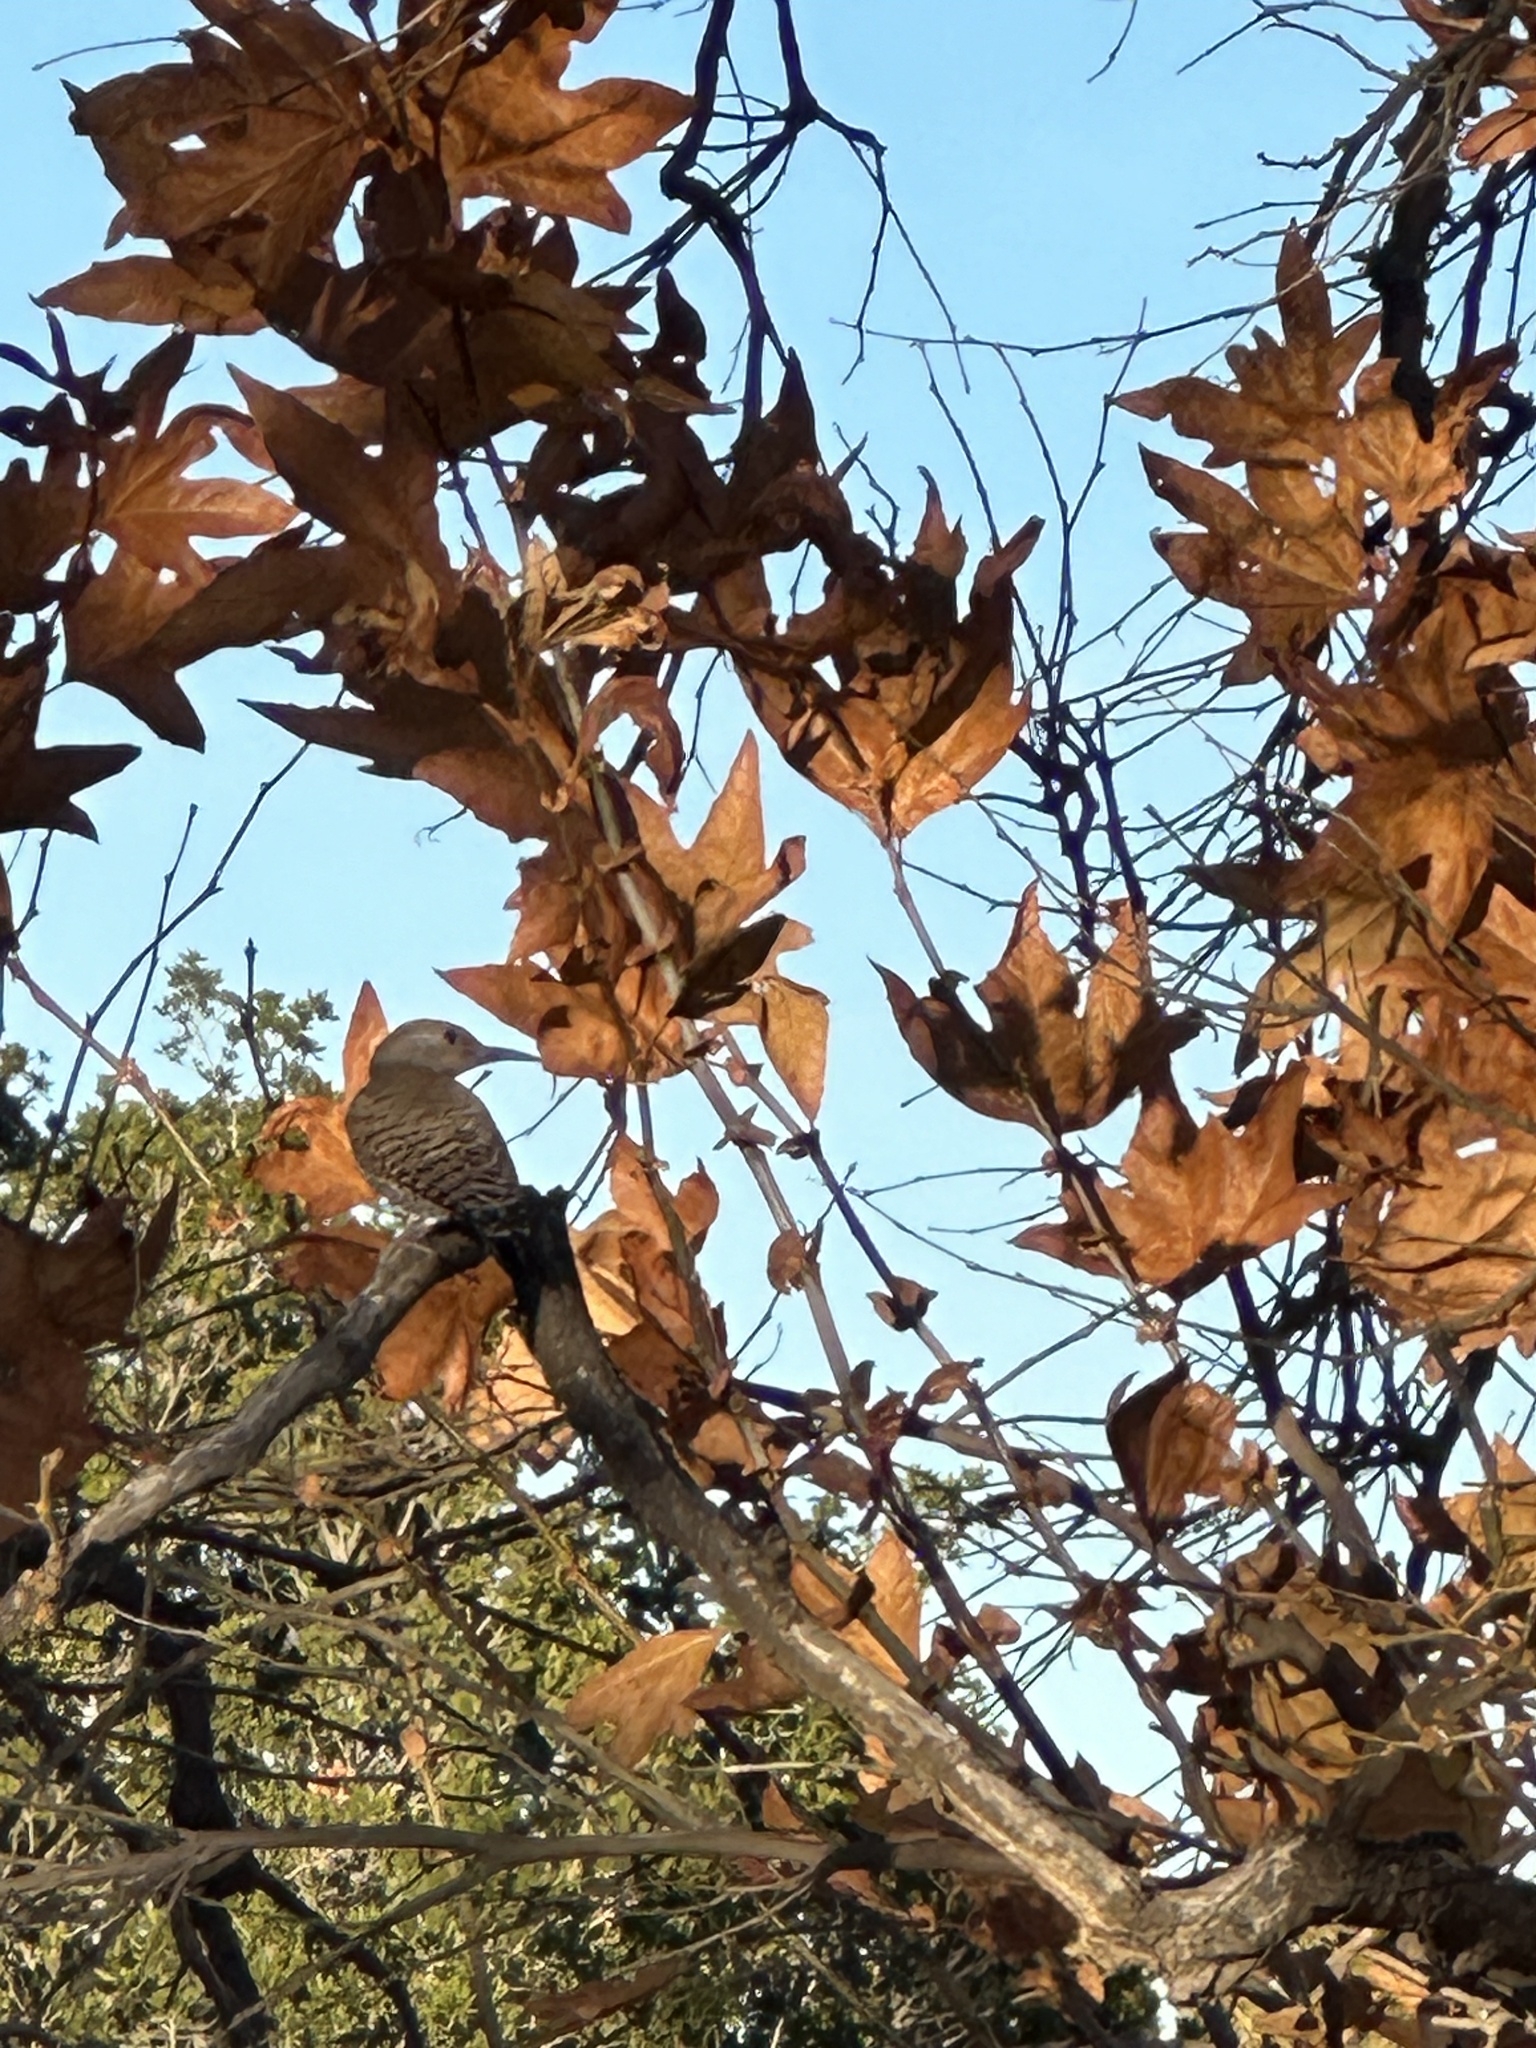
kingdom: Animalia
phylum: Chordata
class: Aves
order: Piciformes
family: Picidae
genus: Colaptes
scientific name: Colaptes auratus
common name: Northern flicker
